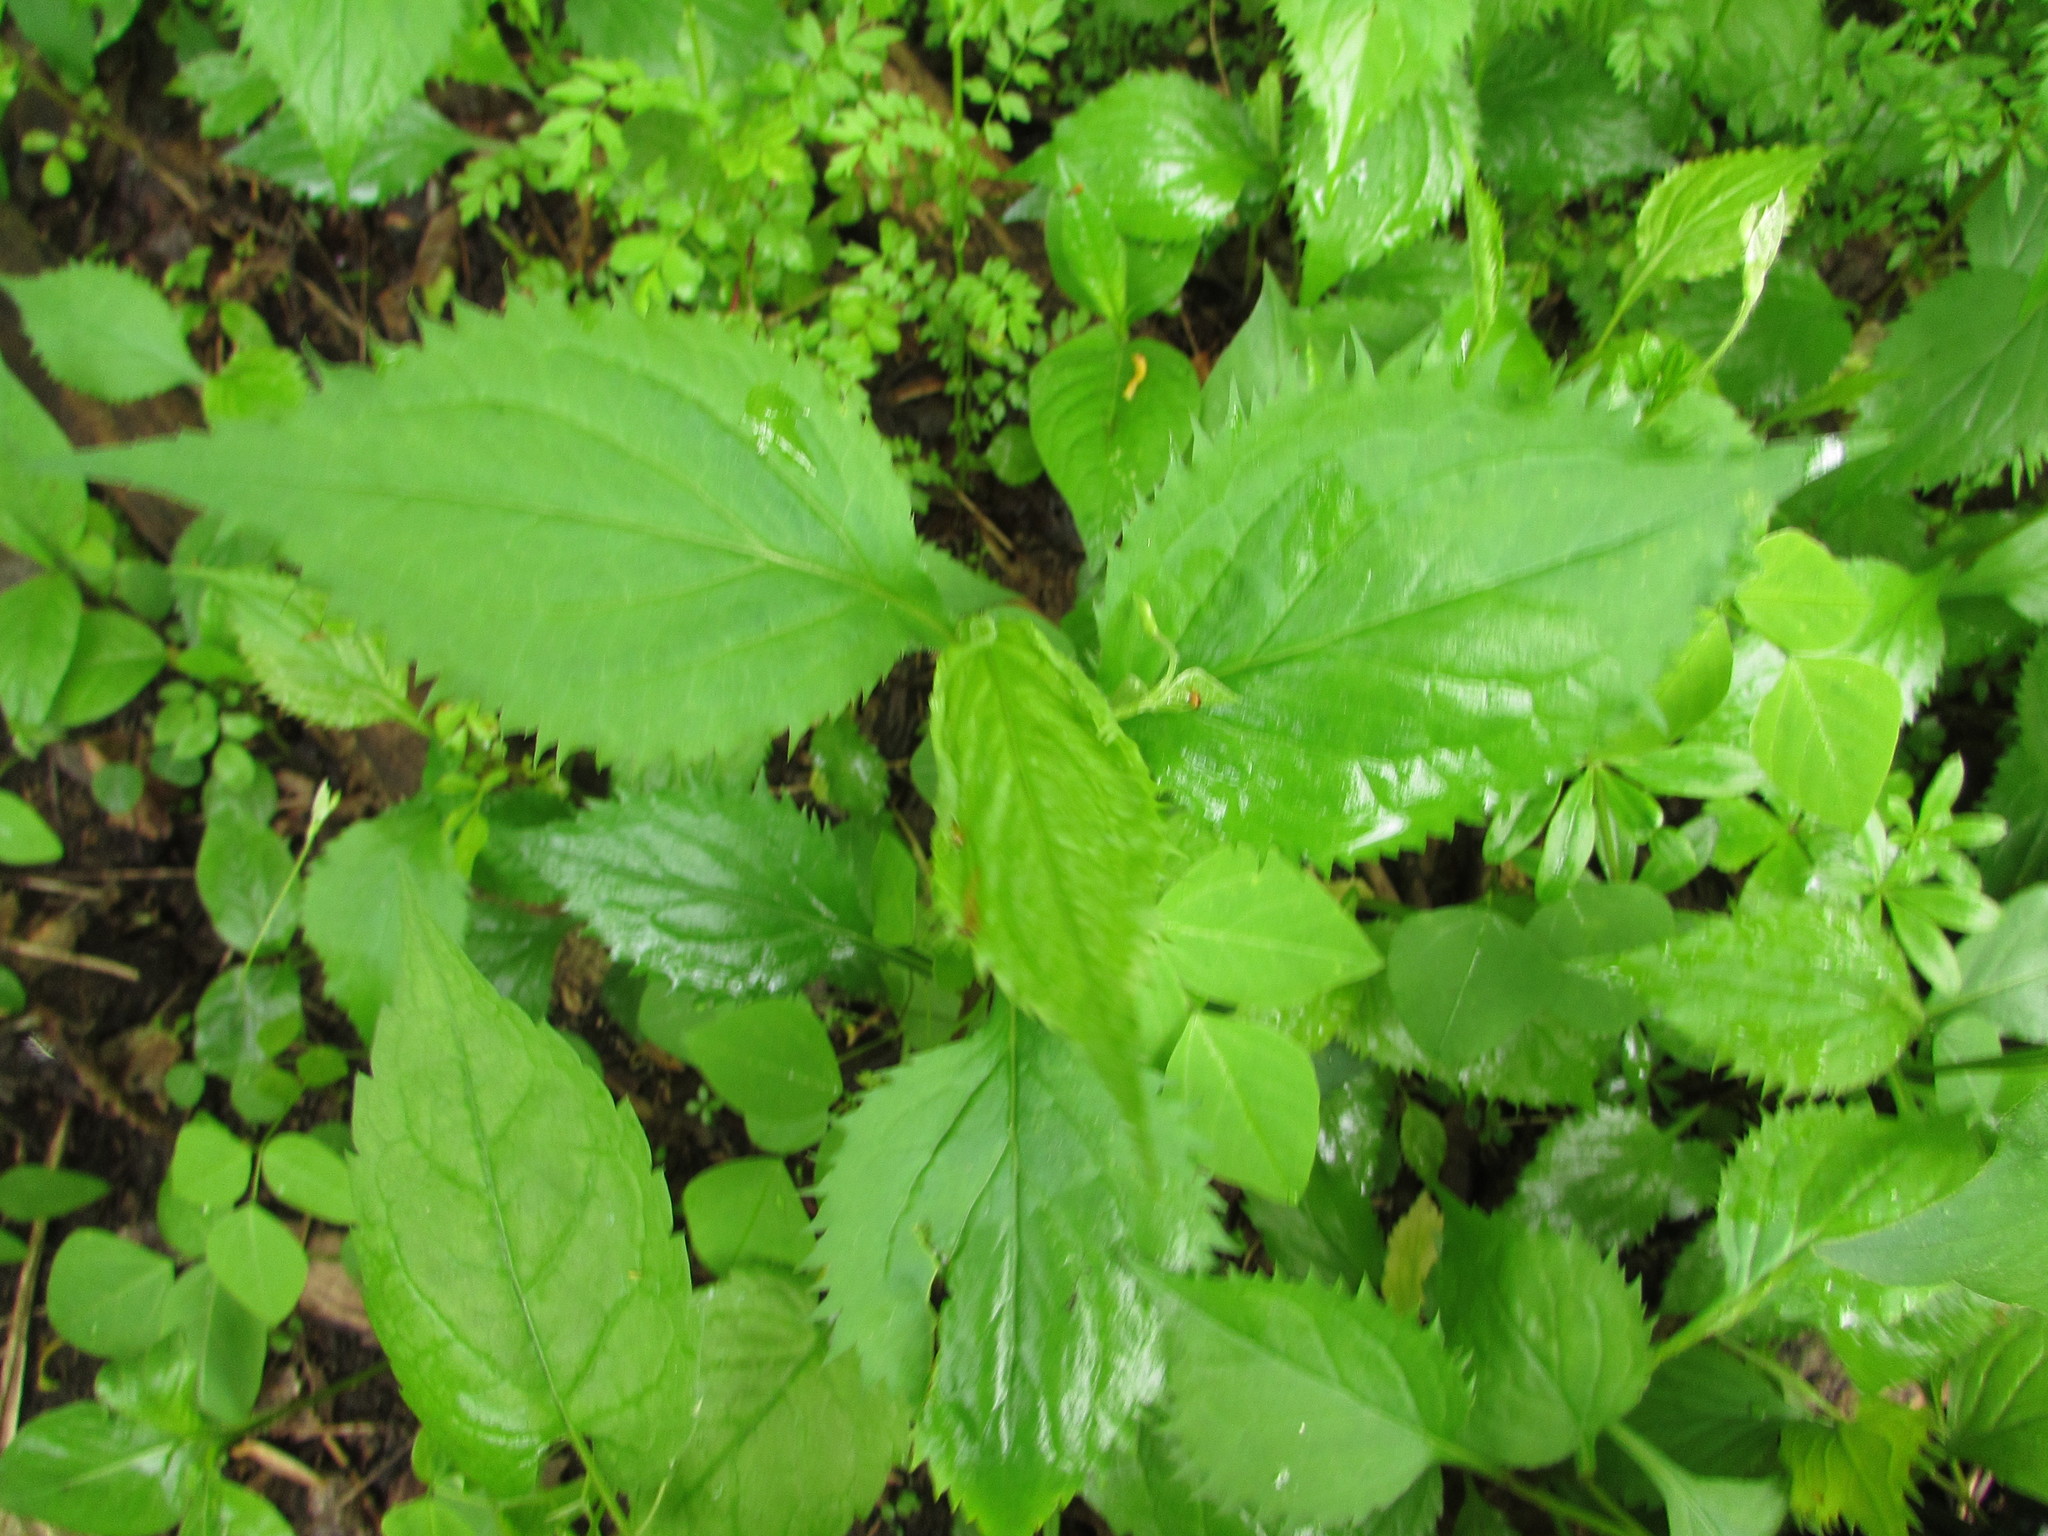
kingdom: Plantae
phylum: Tracheophyta
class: Magnoliopsida
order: Asterales
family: Asteraceae
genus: Solidago
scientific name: Solidago flexicaulis
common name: Zig-zag goldenrod
